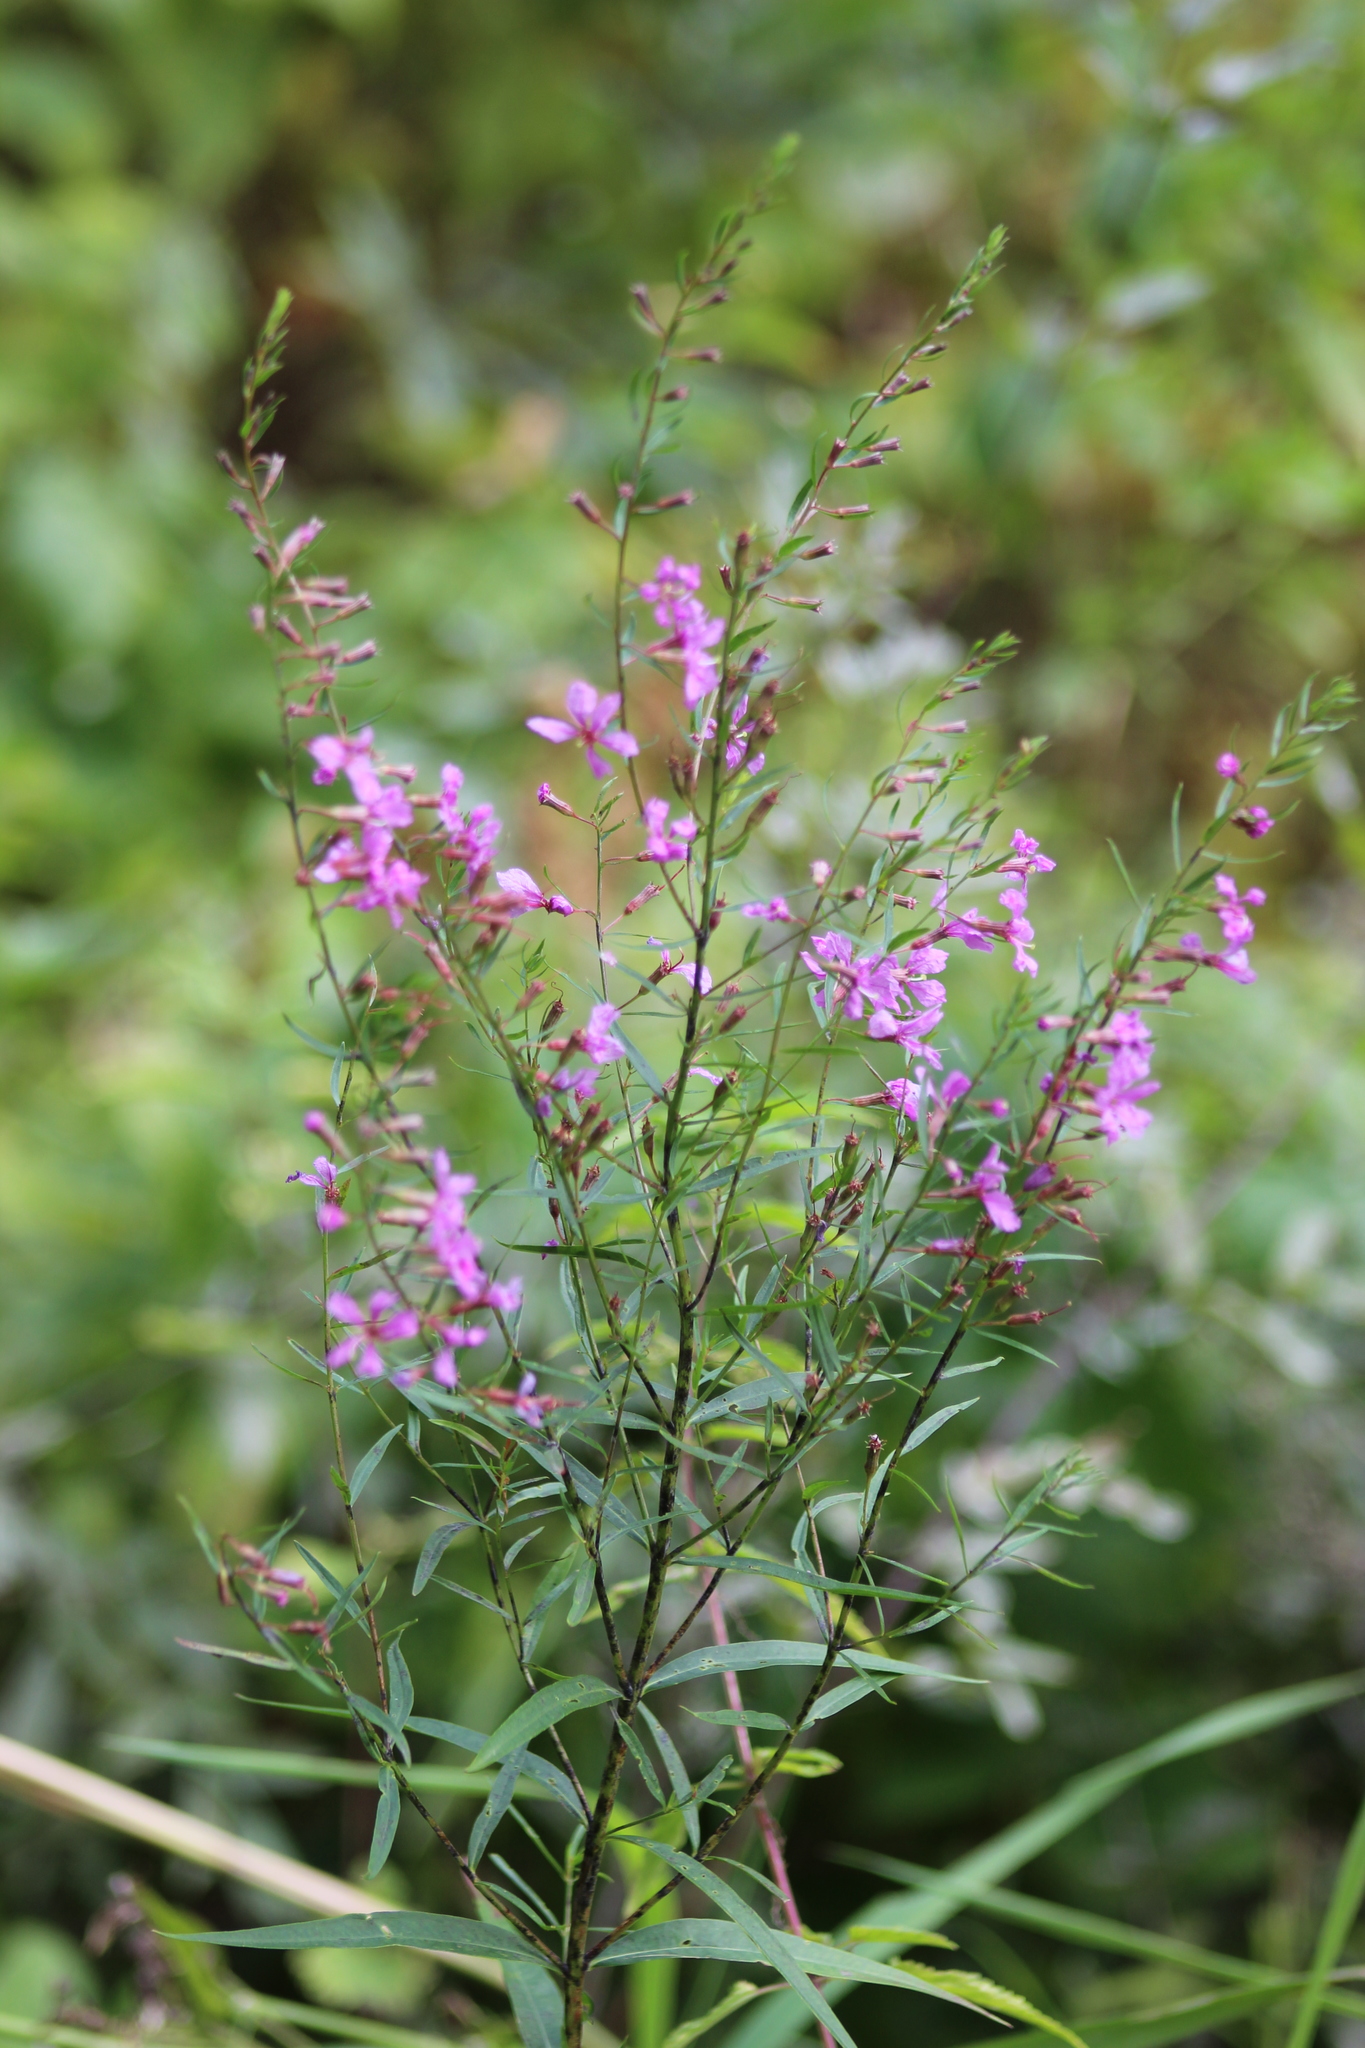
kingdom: Plantae
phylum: Tracheophyta
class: Magnoliopsida
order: Myrtales
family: Lythraceae
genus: Lythrum
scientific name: Lythrum virgatum
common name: European wand loosestrife
